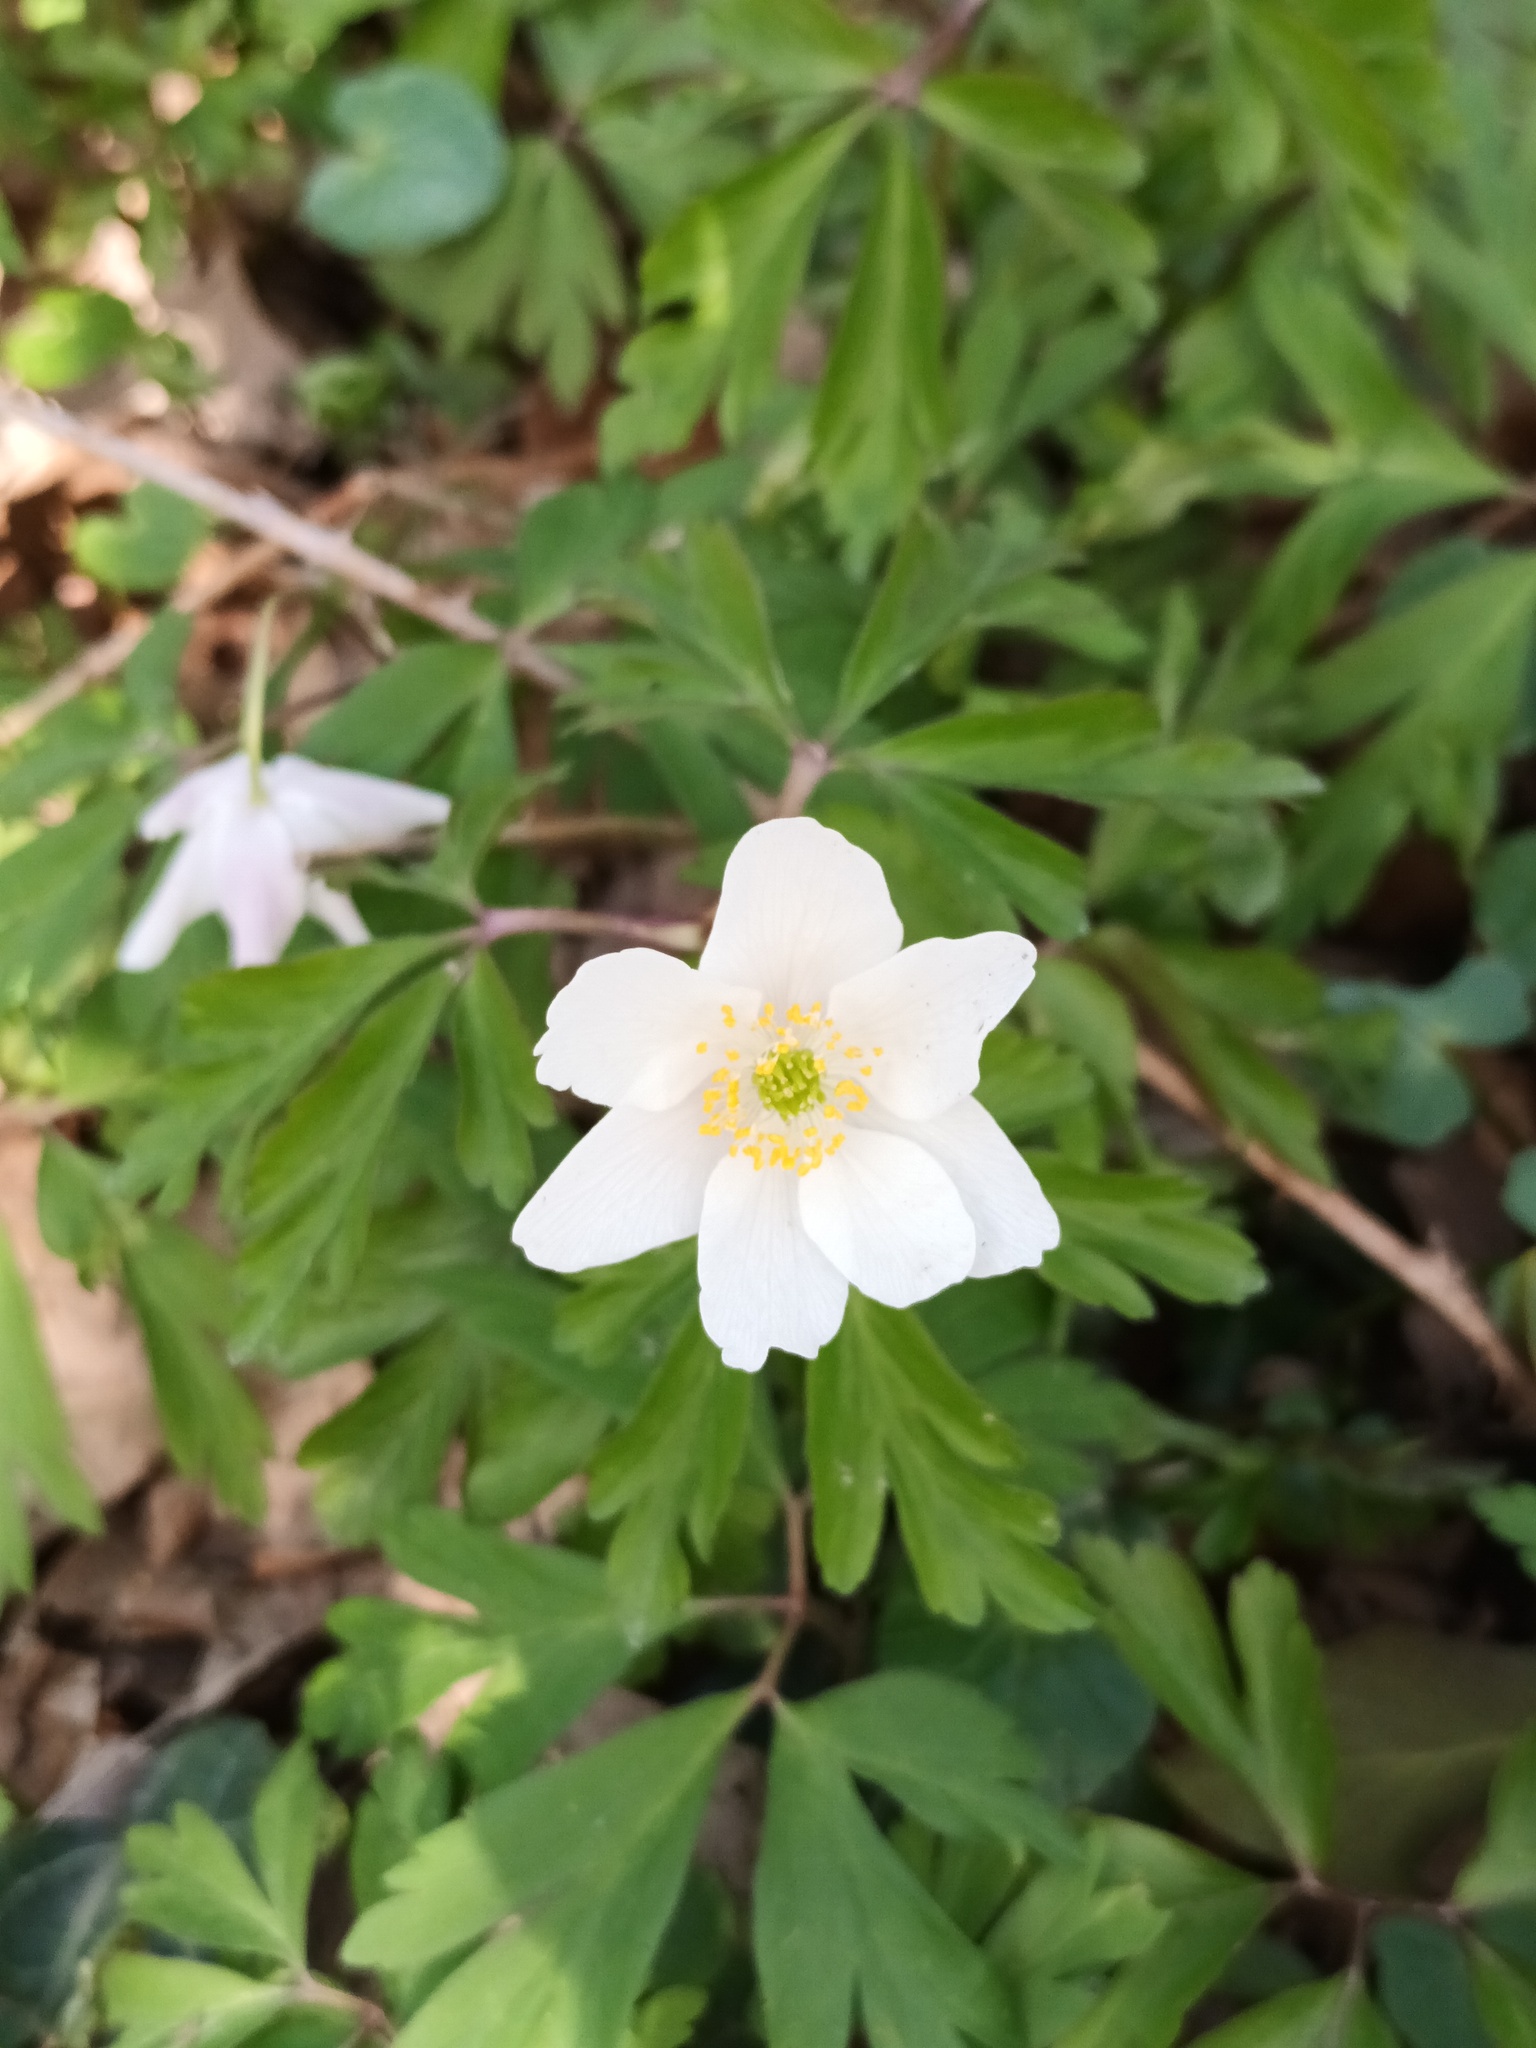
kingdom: Plantae
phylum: Tracheophyta
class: Magnoliopsida
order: Ranunculales
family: Ranunculaceae
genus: Anemone
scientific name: Anemone nemorosa
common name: Wood anemone
